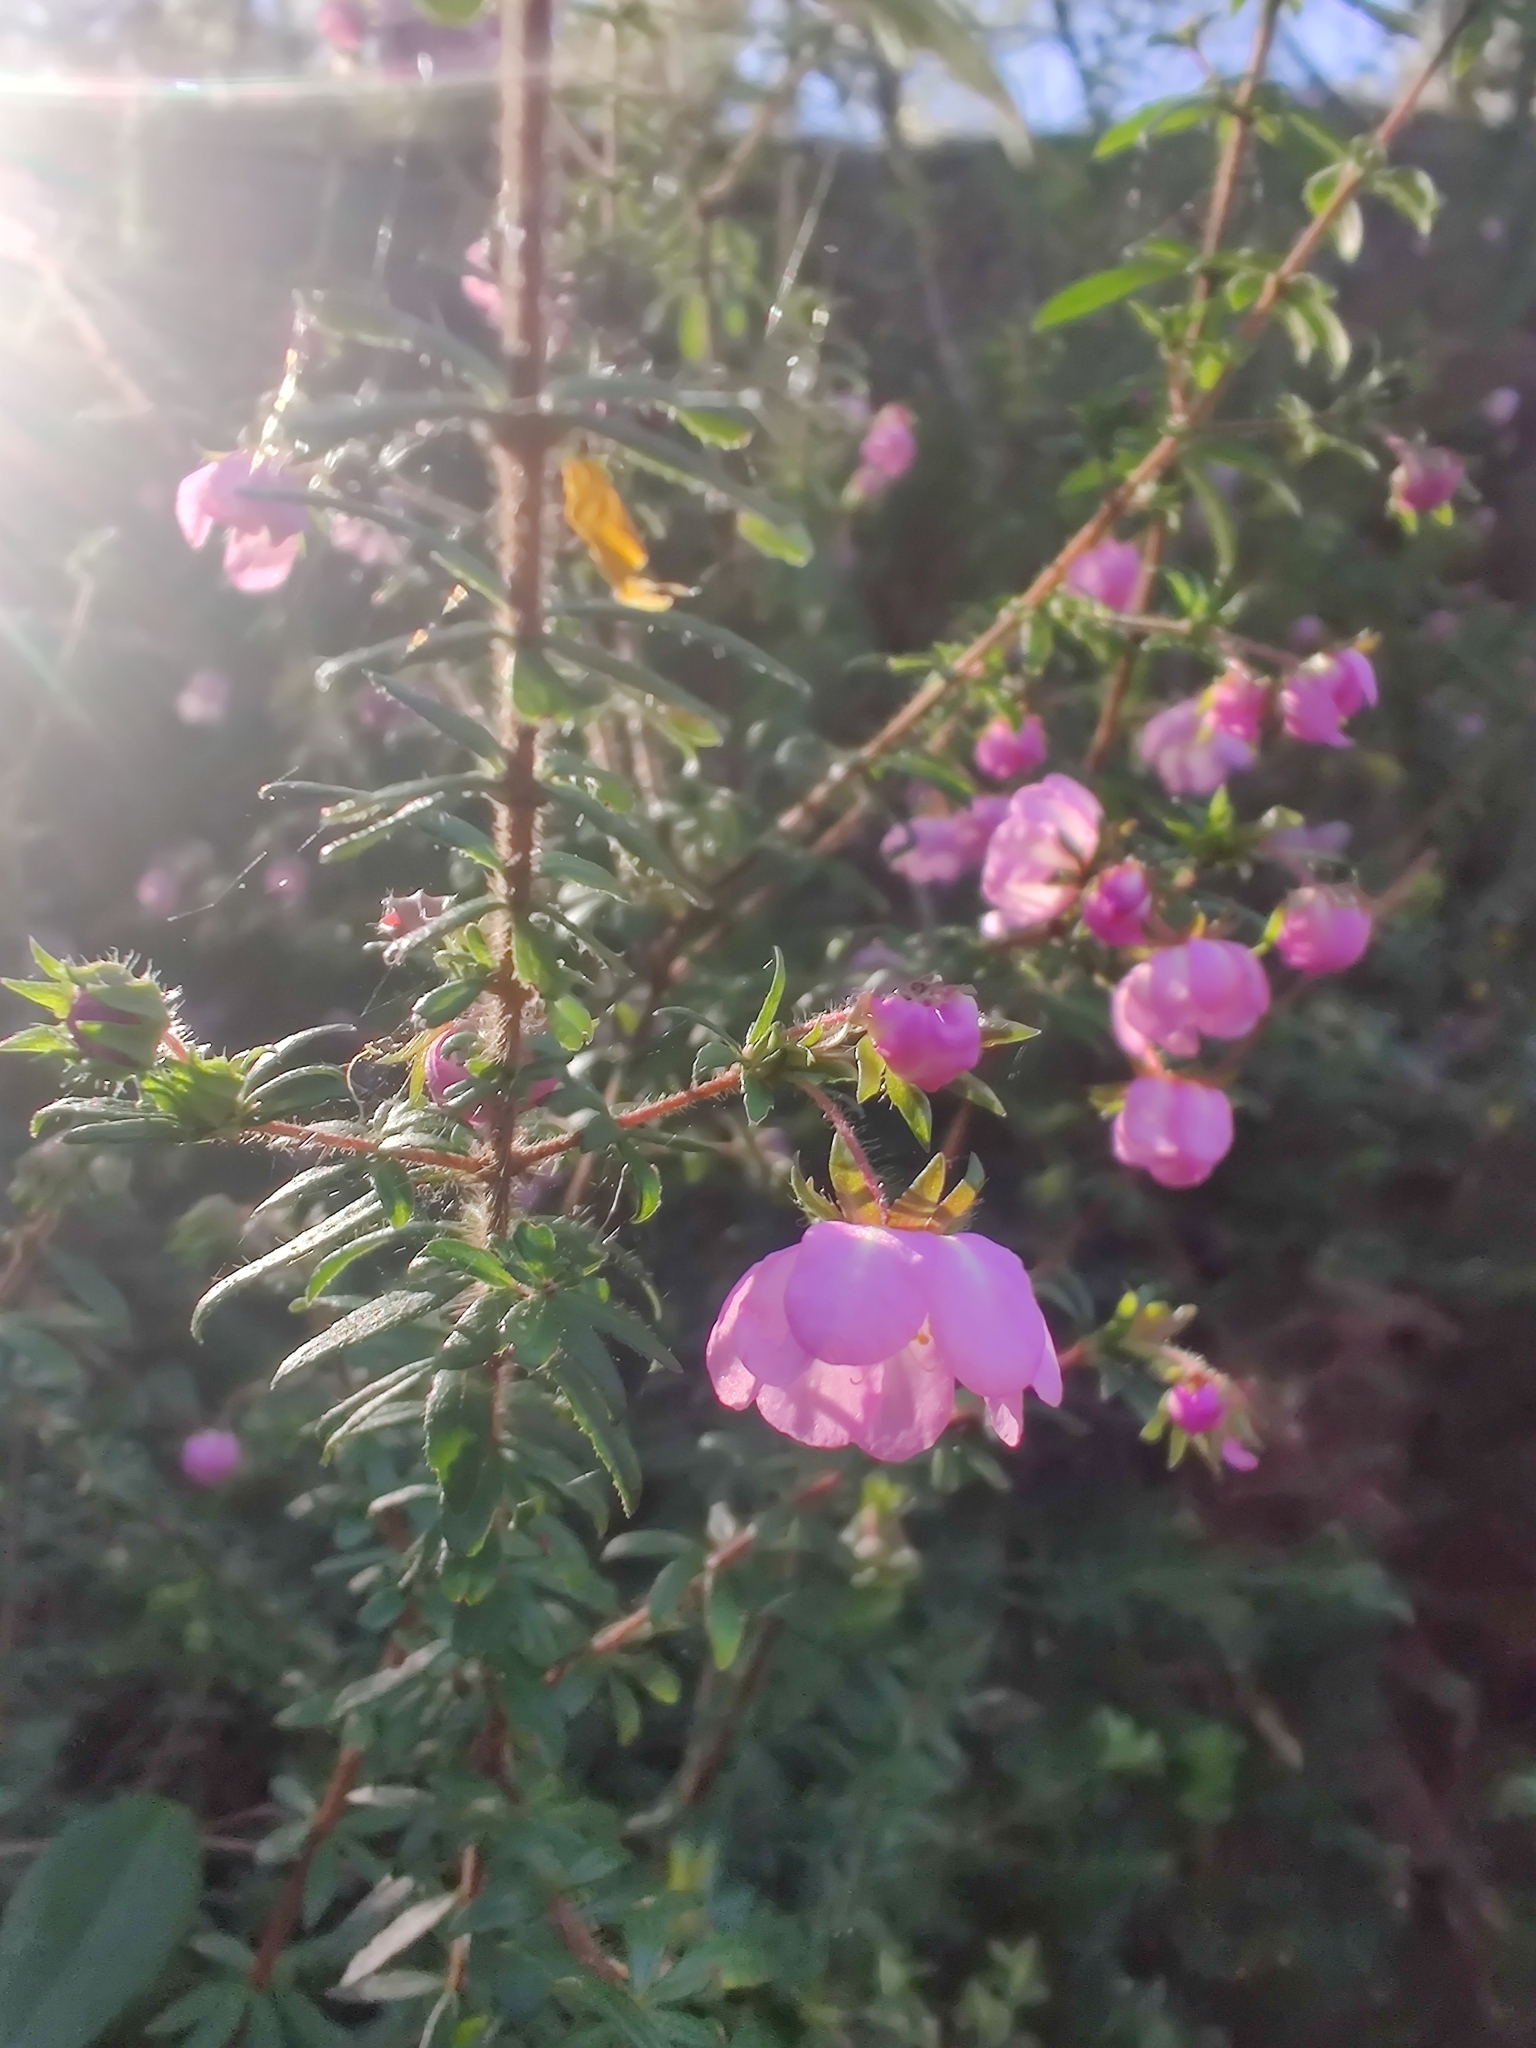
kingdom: Plantae
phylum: Tracheophyta
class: Magnoliopsida
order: Oxalidales
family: Cunoniaceae
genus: Bauera
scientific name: Bauera rubioides
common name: River-rose
